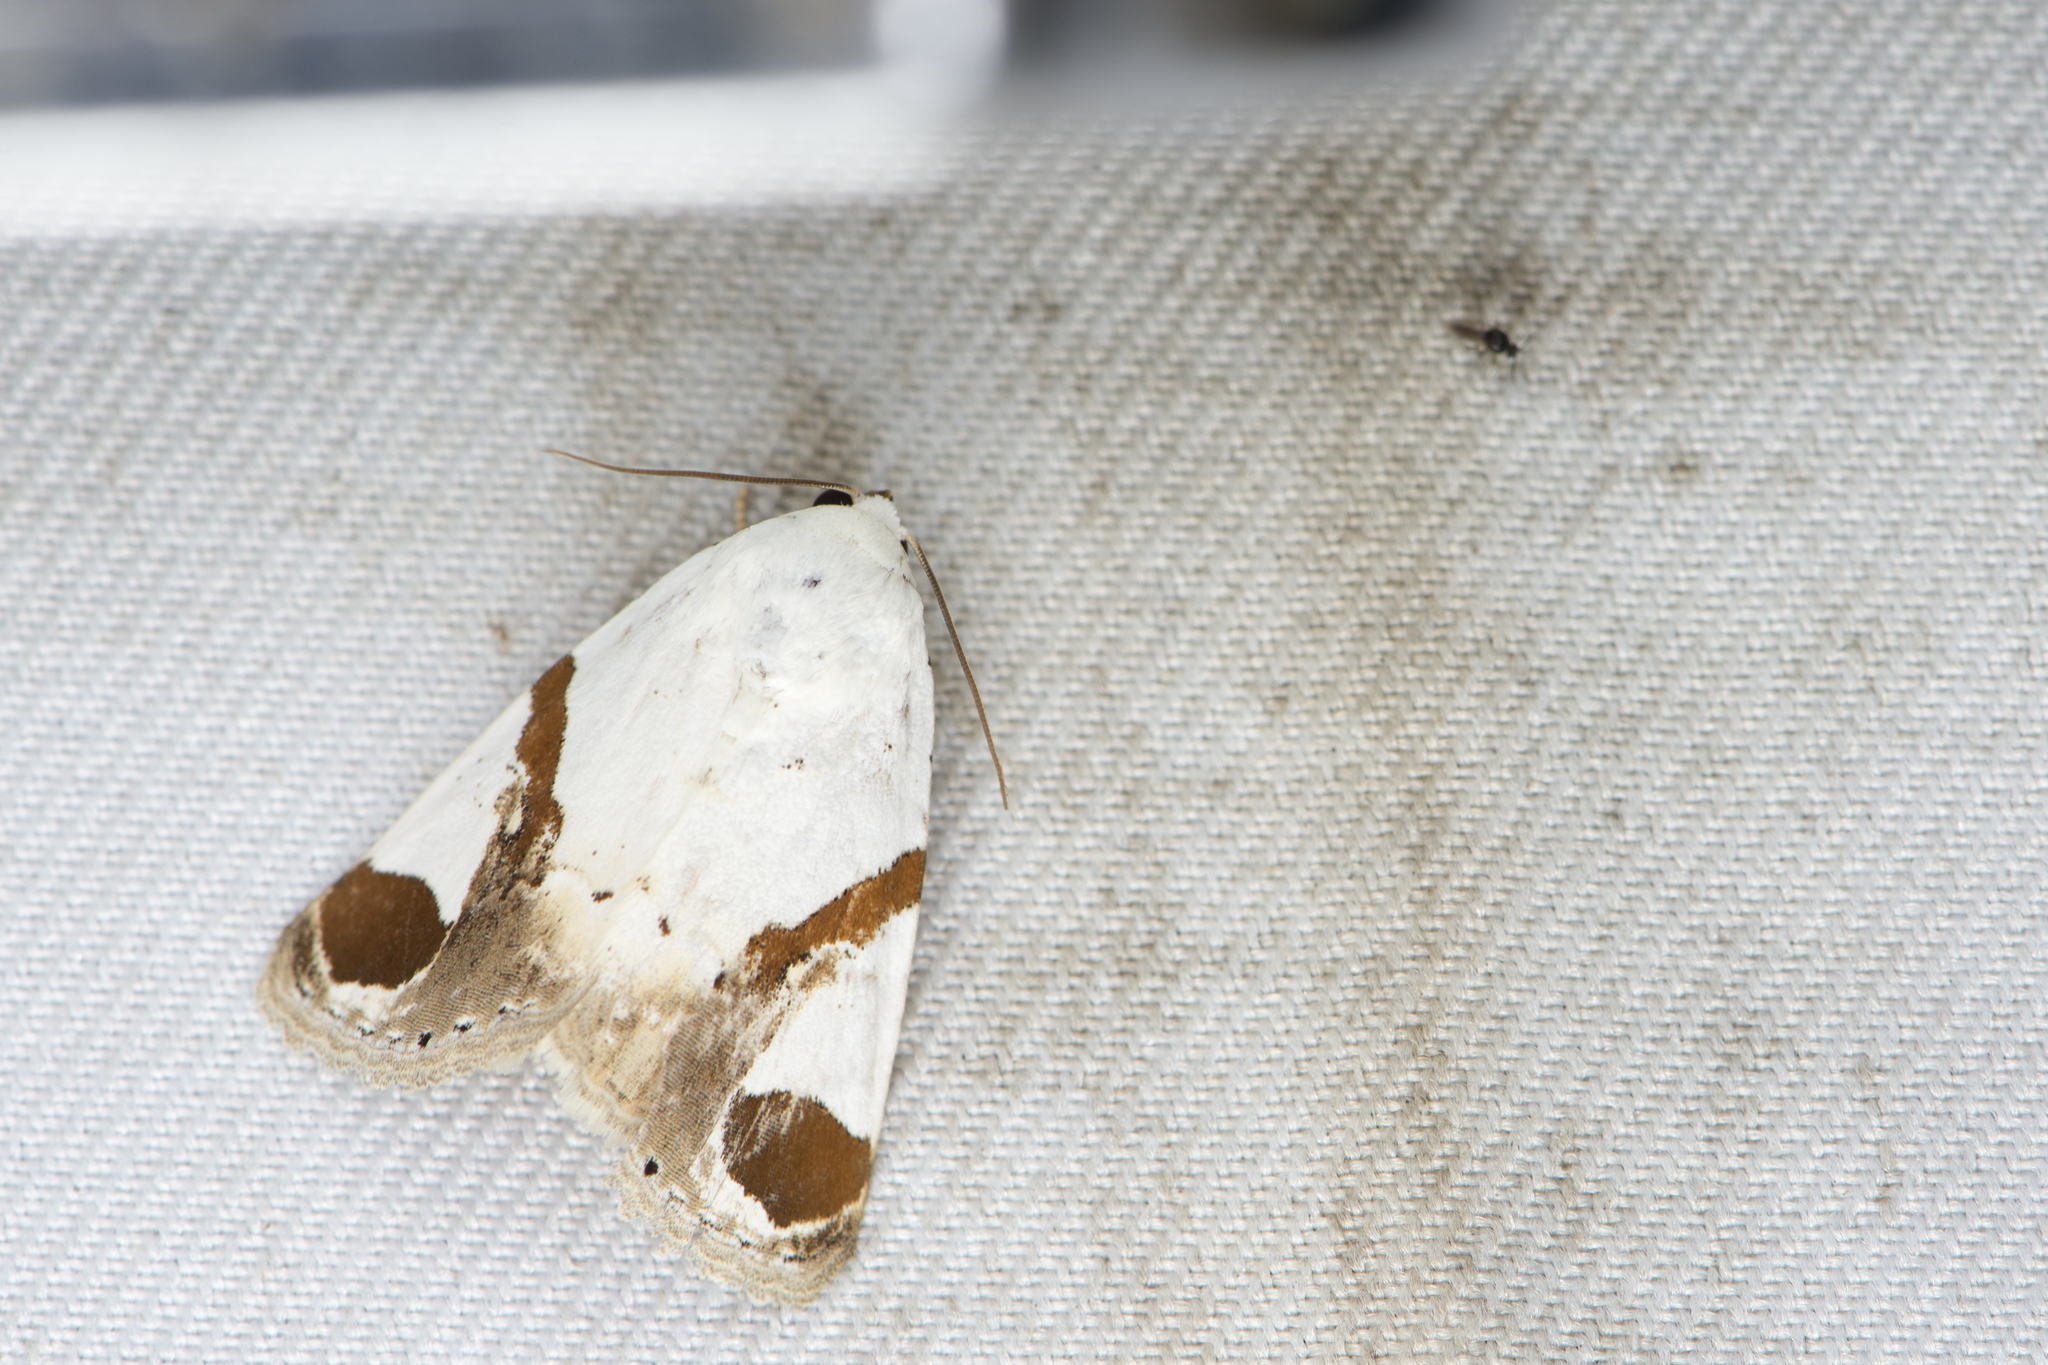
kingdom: Animalia
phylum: Arthropoda
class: Insecta
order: Lepidoptera
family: Noctuidae
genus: Sphragifera
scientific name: Sphragifera biplaga
